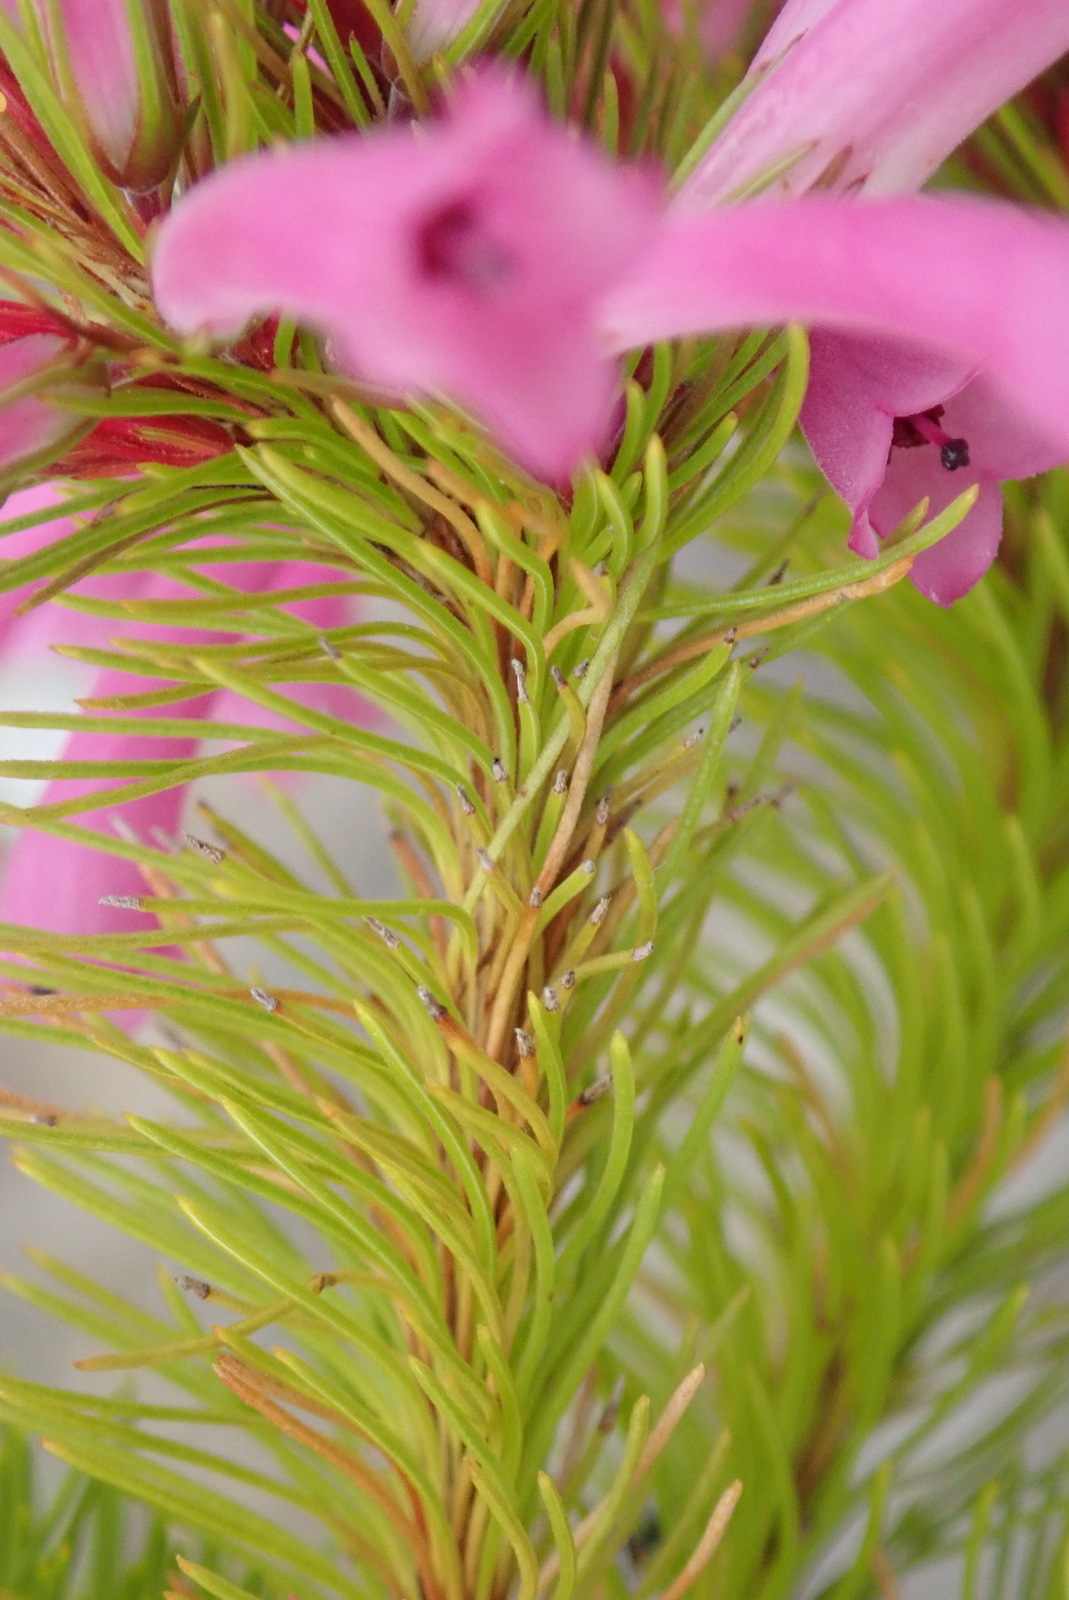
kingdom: Plantae
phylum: Tracheophyta
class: Magnoliopsida
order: Ericales
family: Ericaceae
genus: Erica
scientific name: Erica vestita
